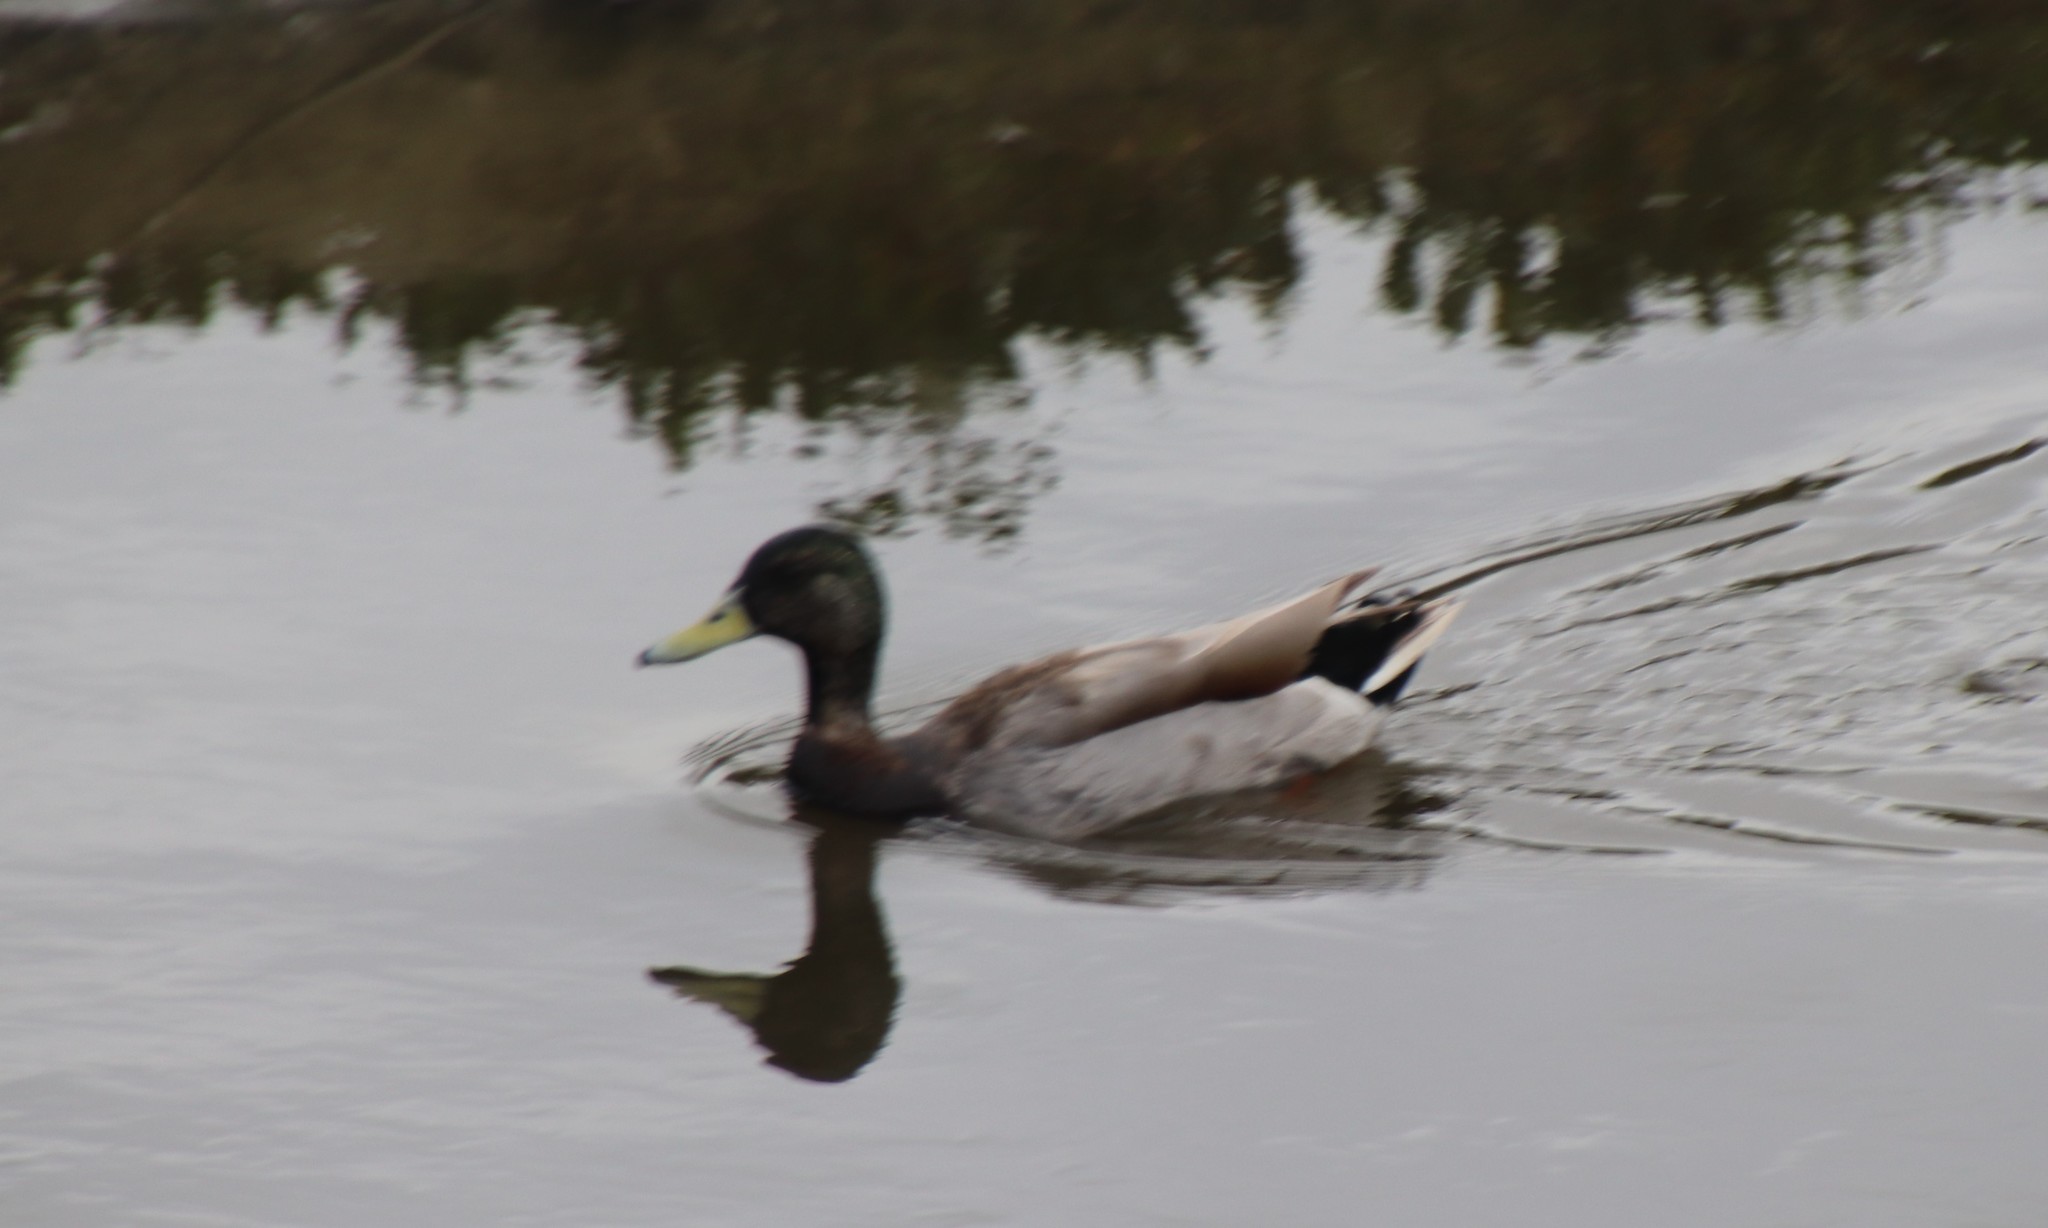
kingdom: Animalia
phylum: Chordata
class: Aves
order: Anseriformes
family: Anatidae
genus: Anas
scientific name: Anas platyrhynchos
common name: Mallard
